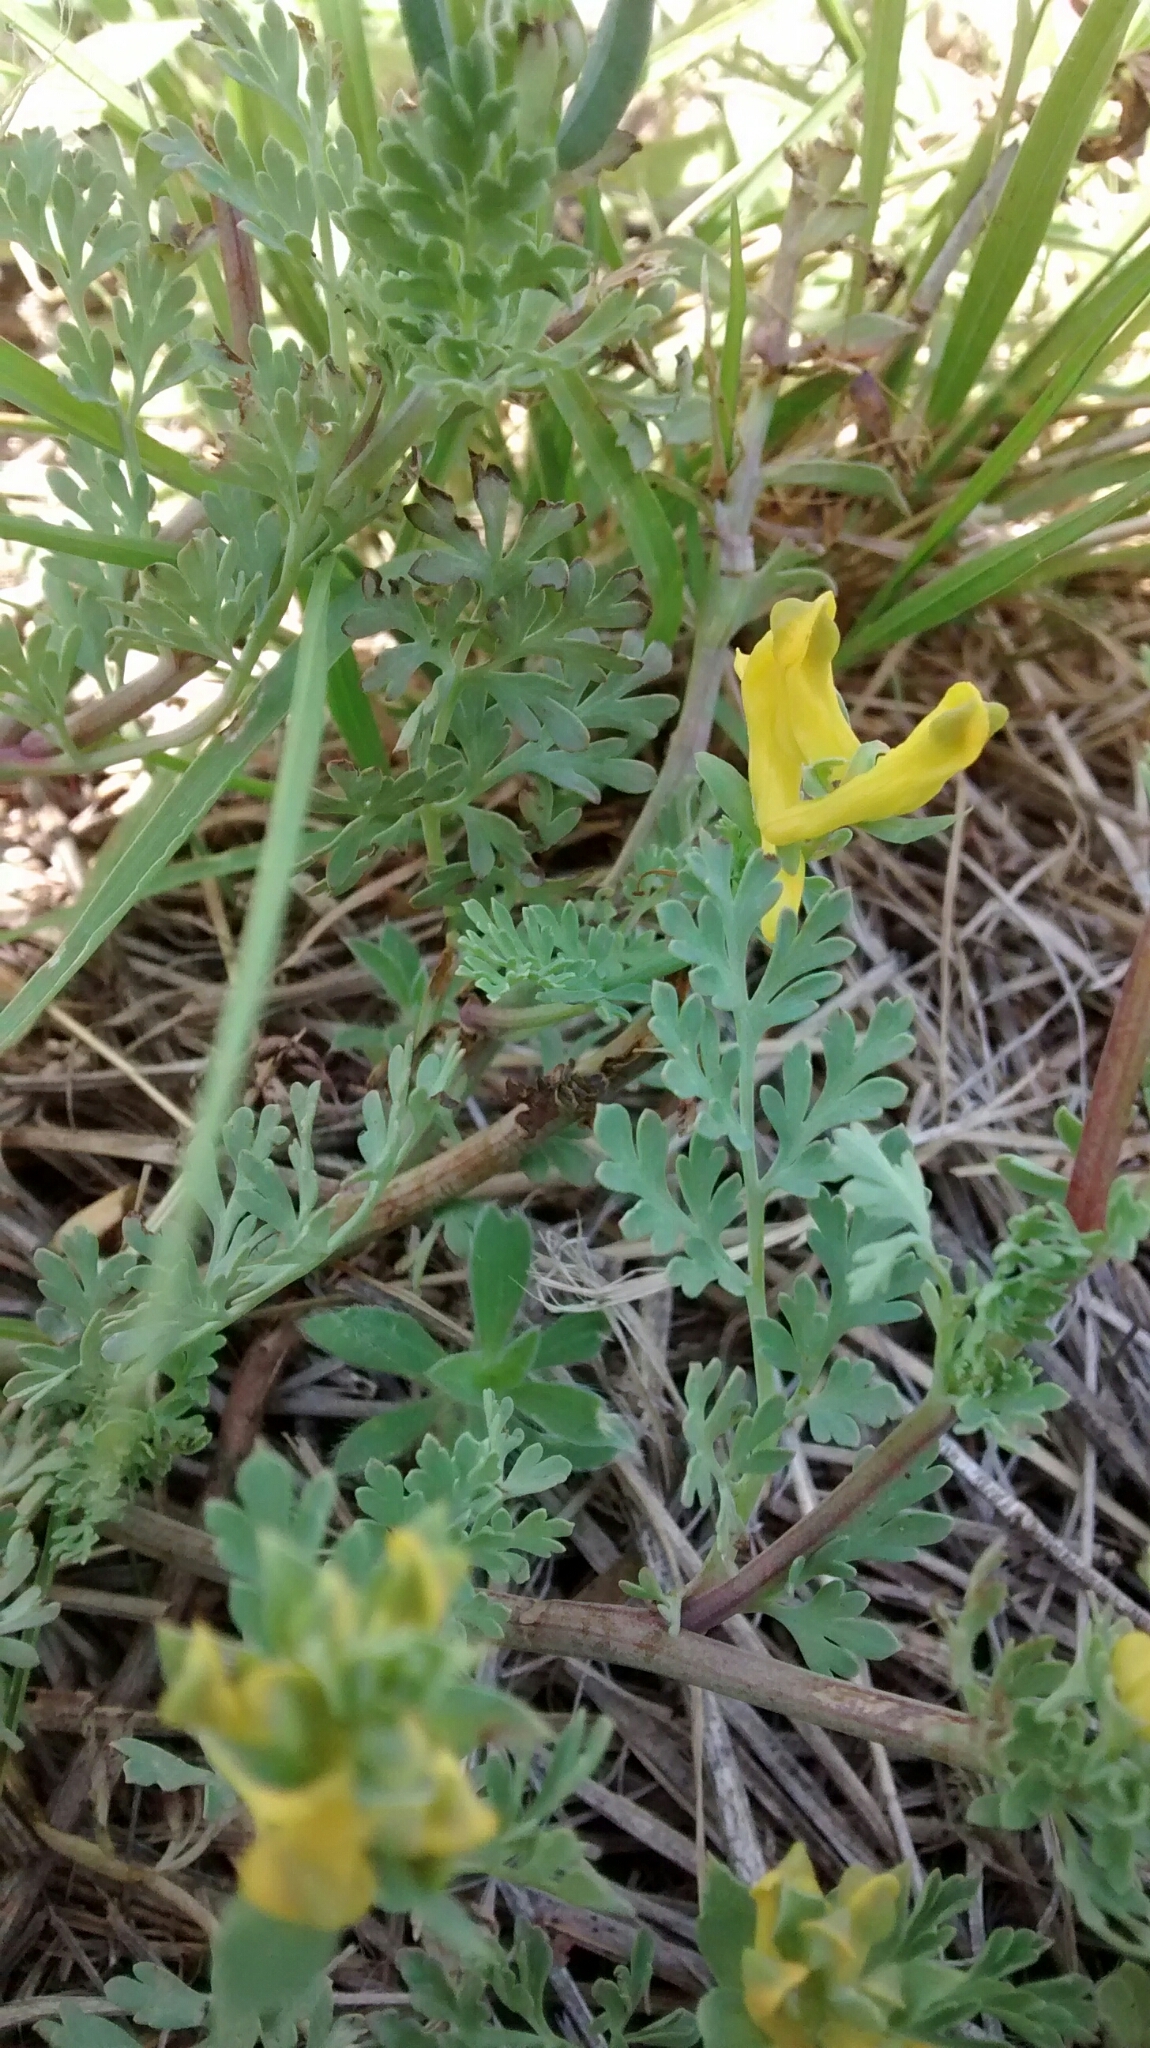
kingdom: Plantae
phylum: Tracheophyta
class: Magnoliopsida
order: Ranunculales
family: Papaveraceae
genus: Corydalis
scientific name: Corydalis aurea
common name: Golden corydalis
